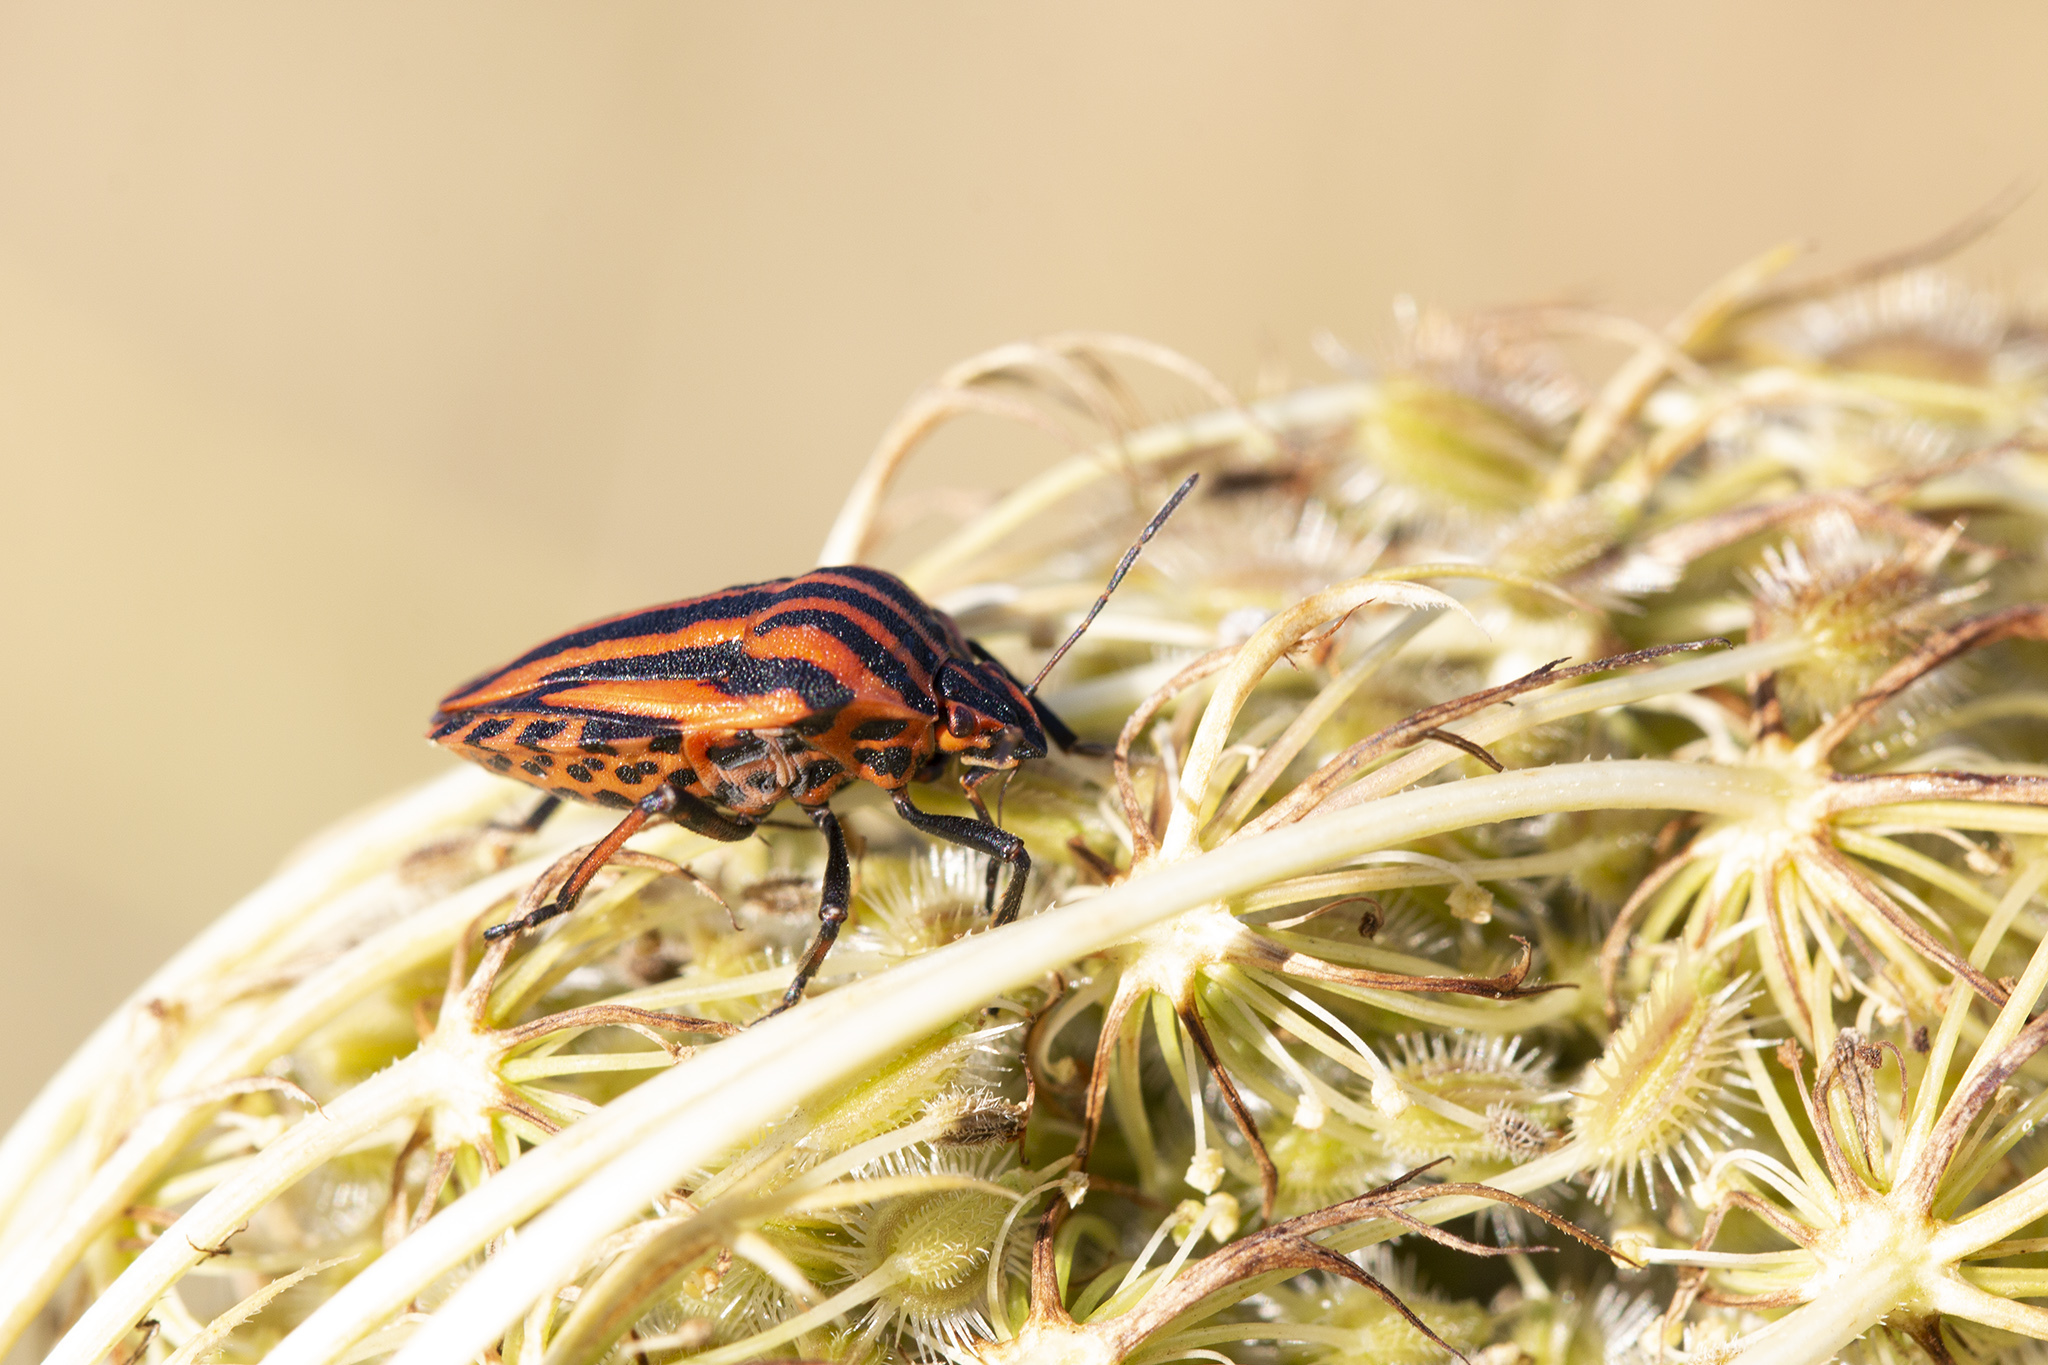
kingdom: Animalia
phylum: Arthropoda
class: Insecta
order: Hemiptera
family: Pentatomidae
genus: Graphosoma
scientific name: Graphosoma italicum
